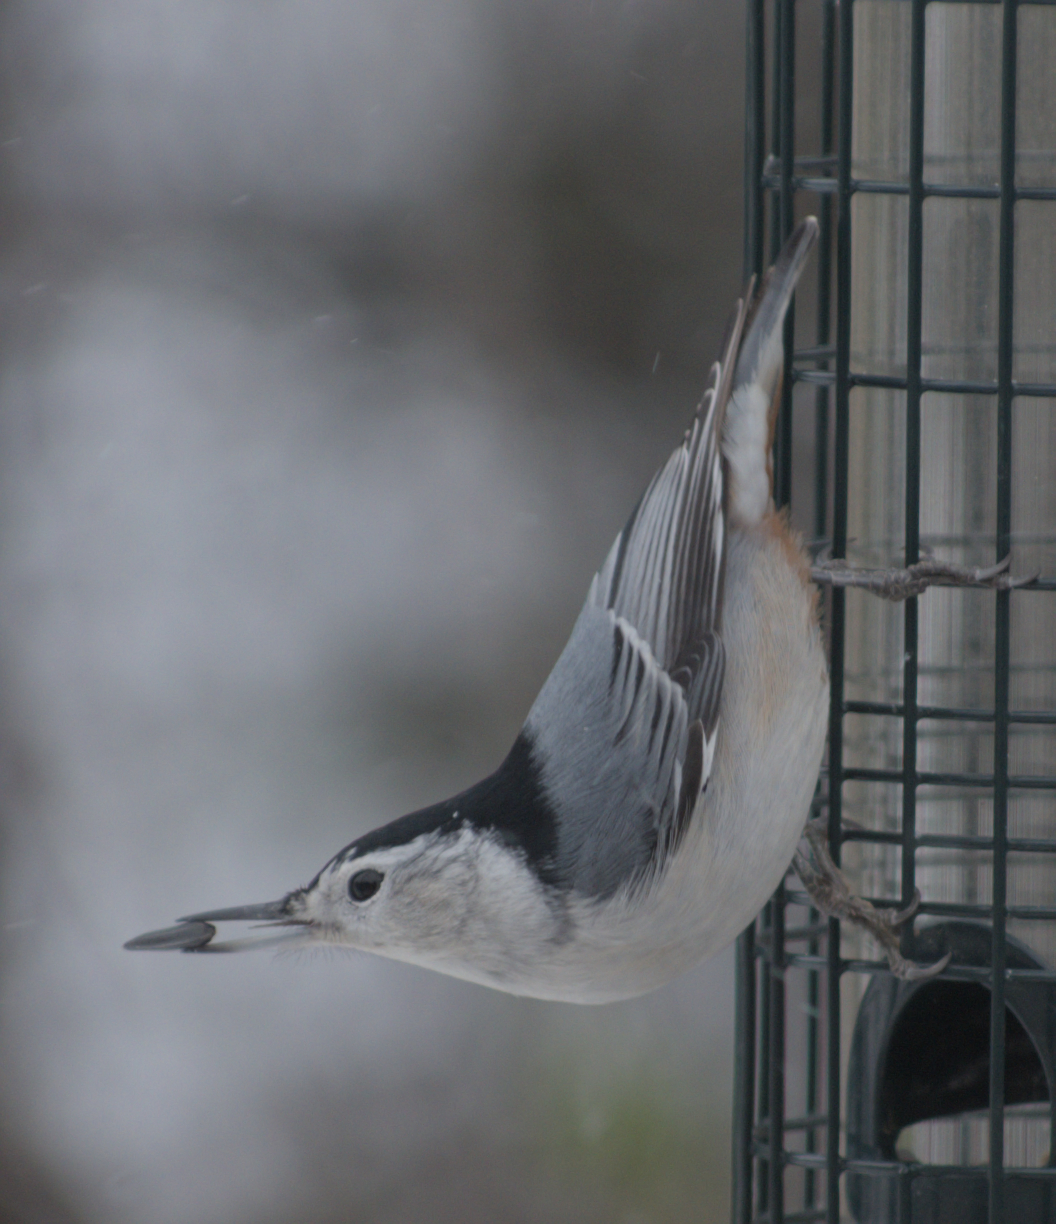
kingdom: Animalia
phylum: Chordata
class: Aves
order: Passeriformes
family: Sittidae
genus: Sitta
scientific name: Sitta carolinensis
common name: White-breasted nuthatch
